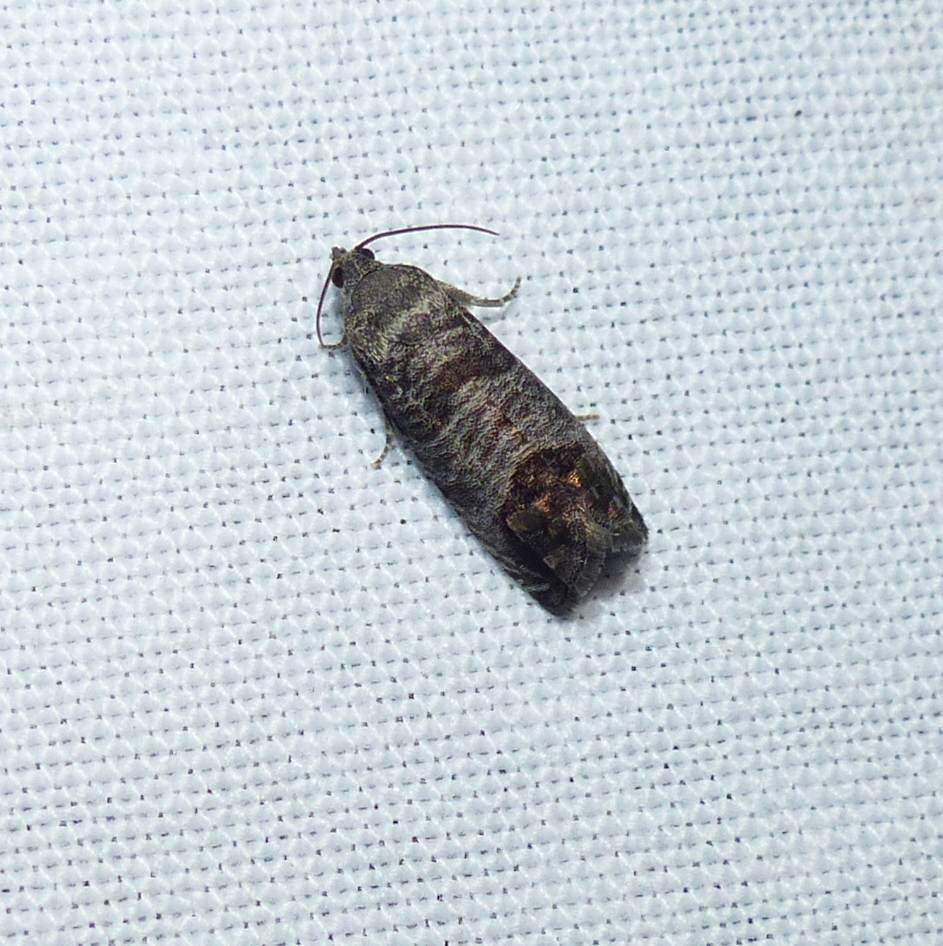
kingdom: Animalia
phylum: Arthropoda
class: Insecta
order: Lepidoptera
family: Tortricidae
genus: Cydia
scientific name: Cydia pomonella
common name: Codling moth
